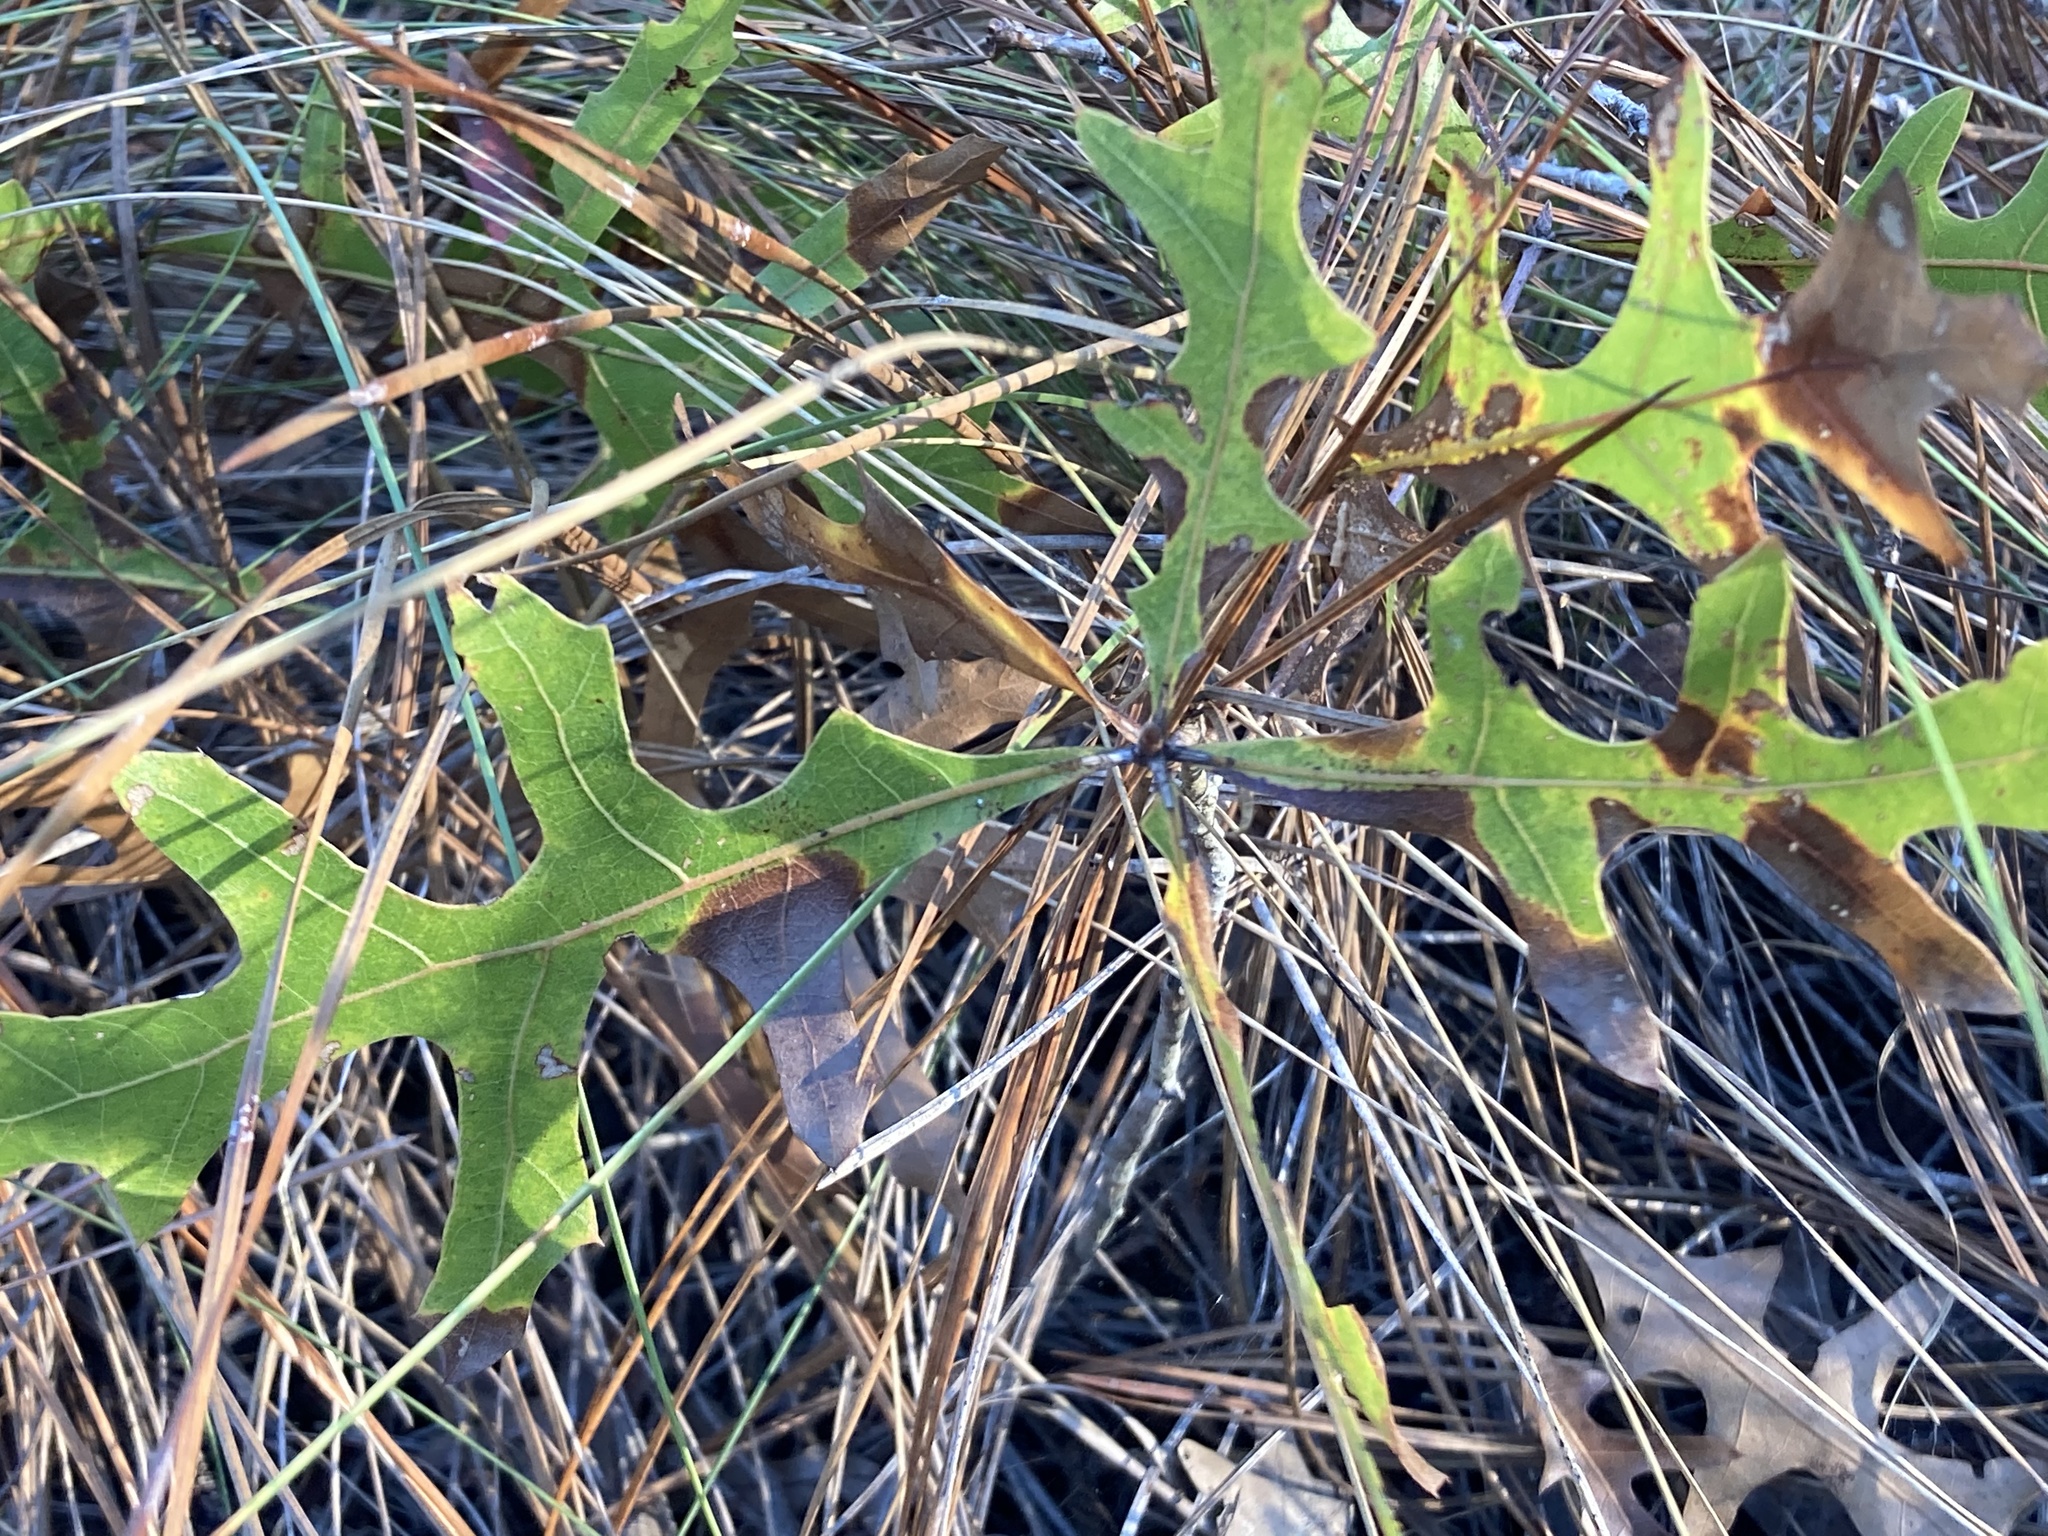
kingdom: Plantae
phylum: Tracheophyta
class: Magnoliopsida
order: Fagales
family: Fagaceae
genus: Quercus
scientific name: Quercus laevis
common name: Turkey oak
